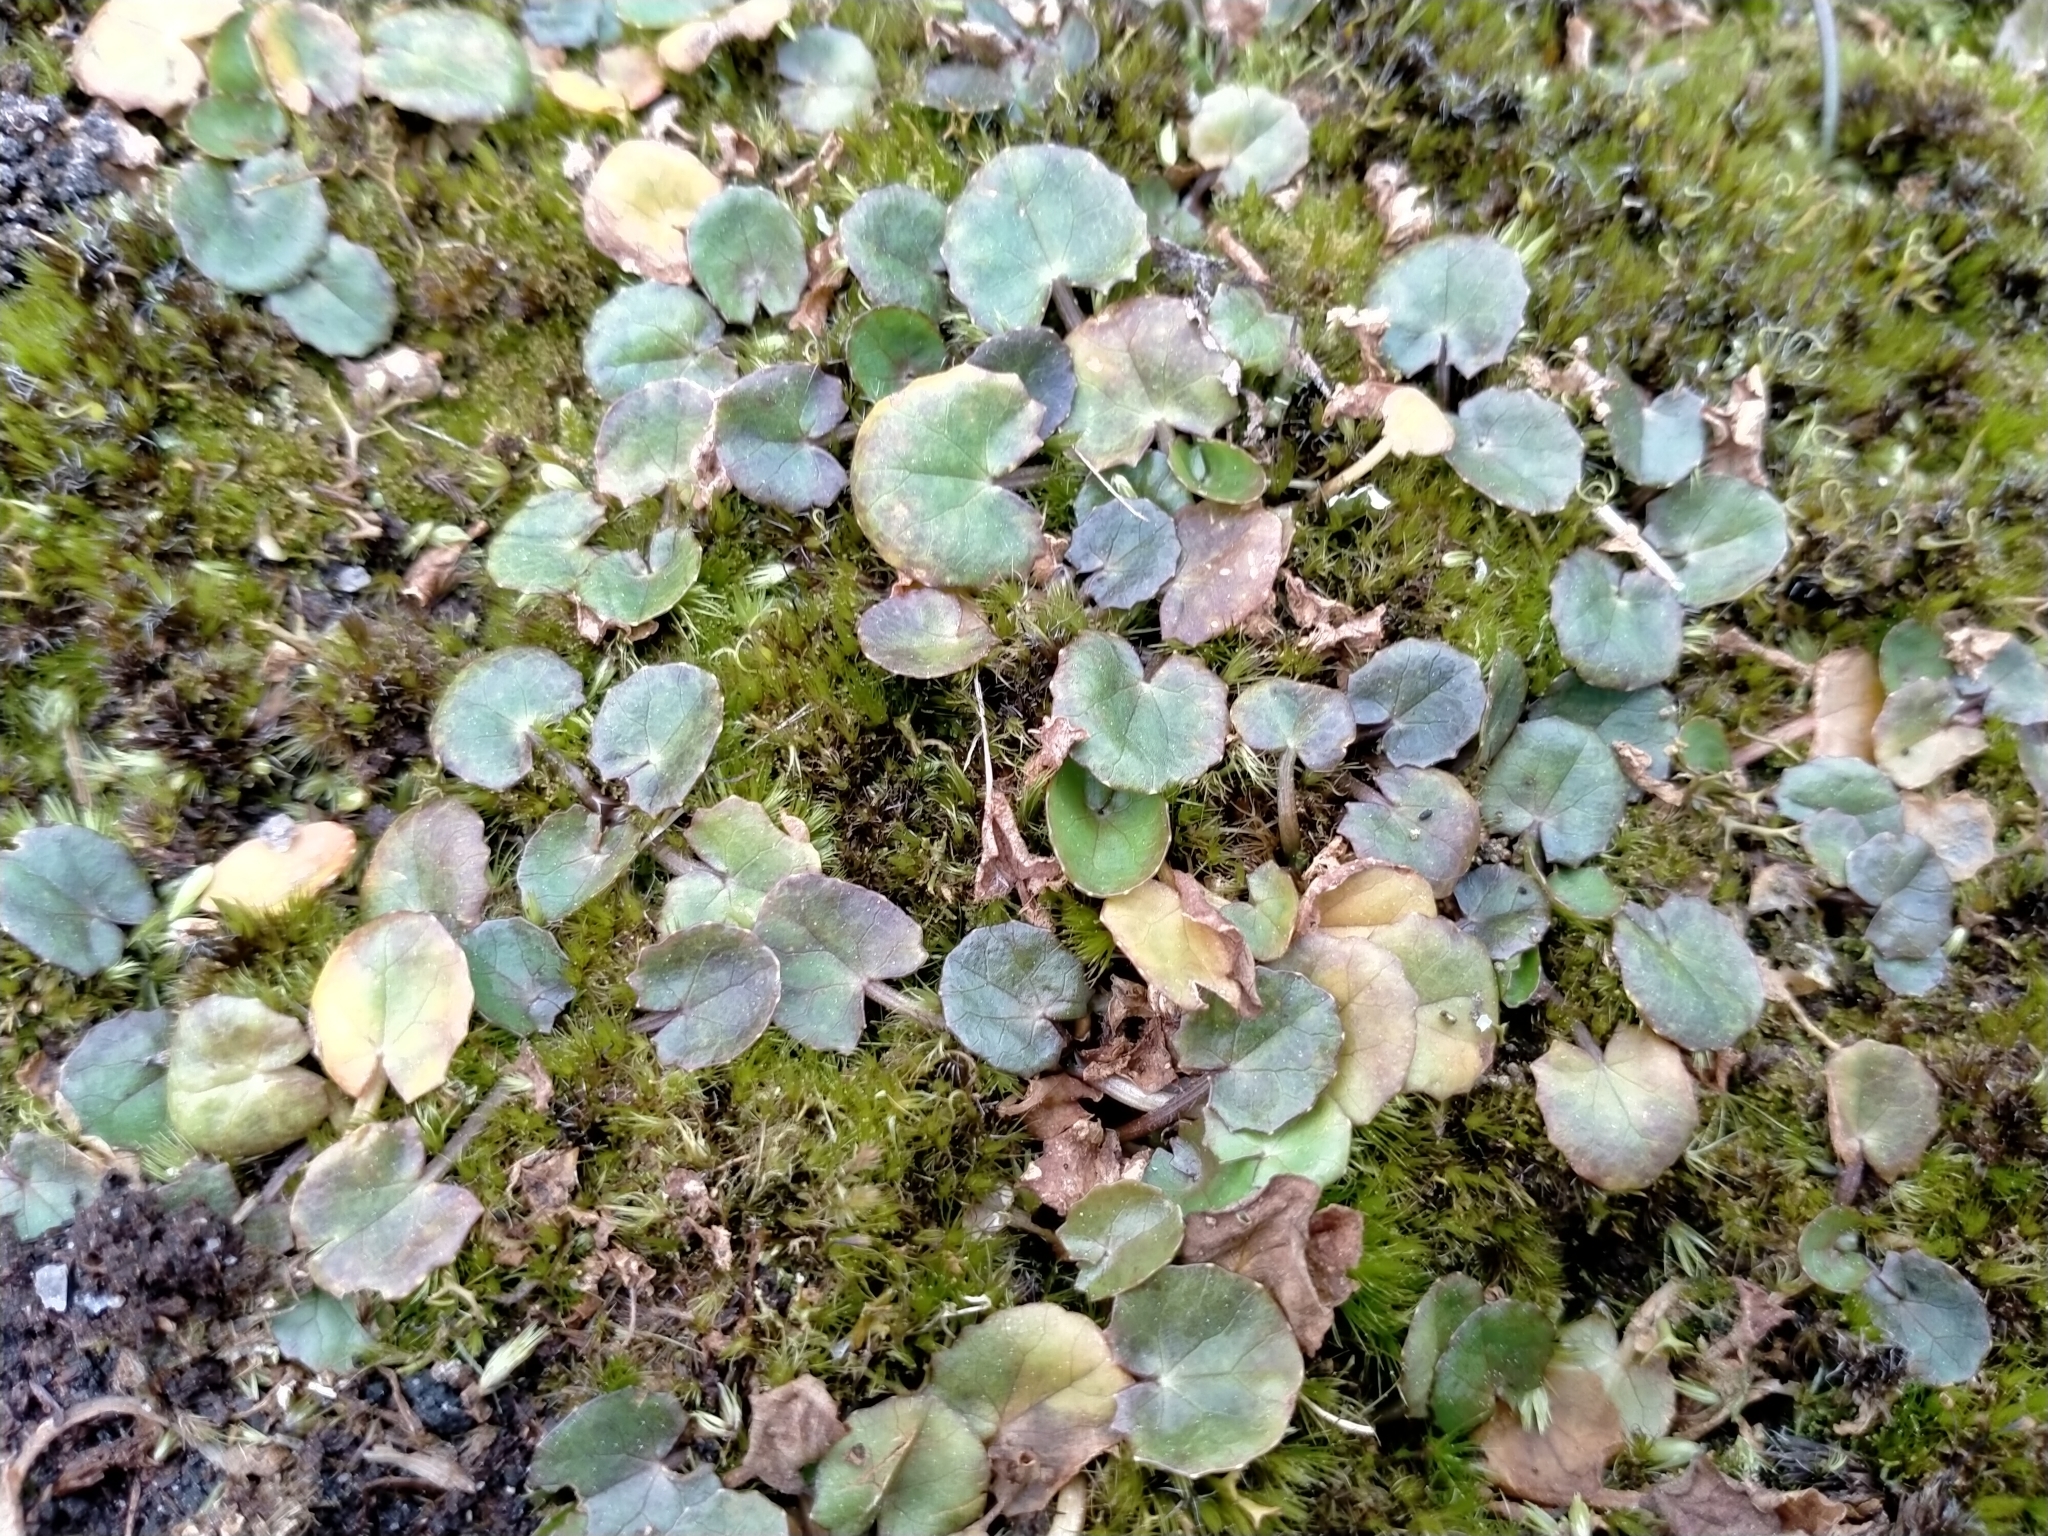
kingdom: Plantae
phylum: Tracheophyta
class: Magnoliopsida
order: Apiales
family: Apiaceae
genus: Centella
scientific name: Centella uniflora
